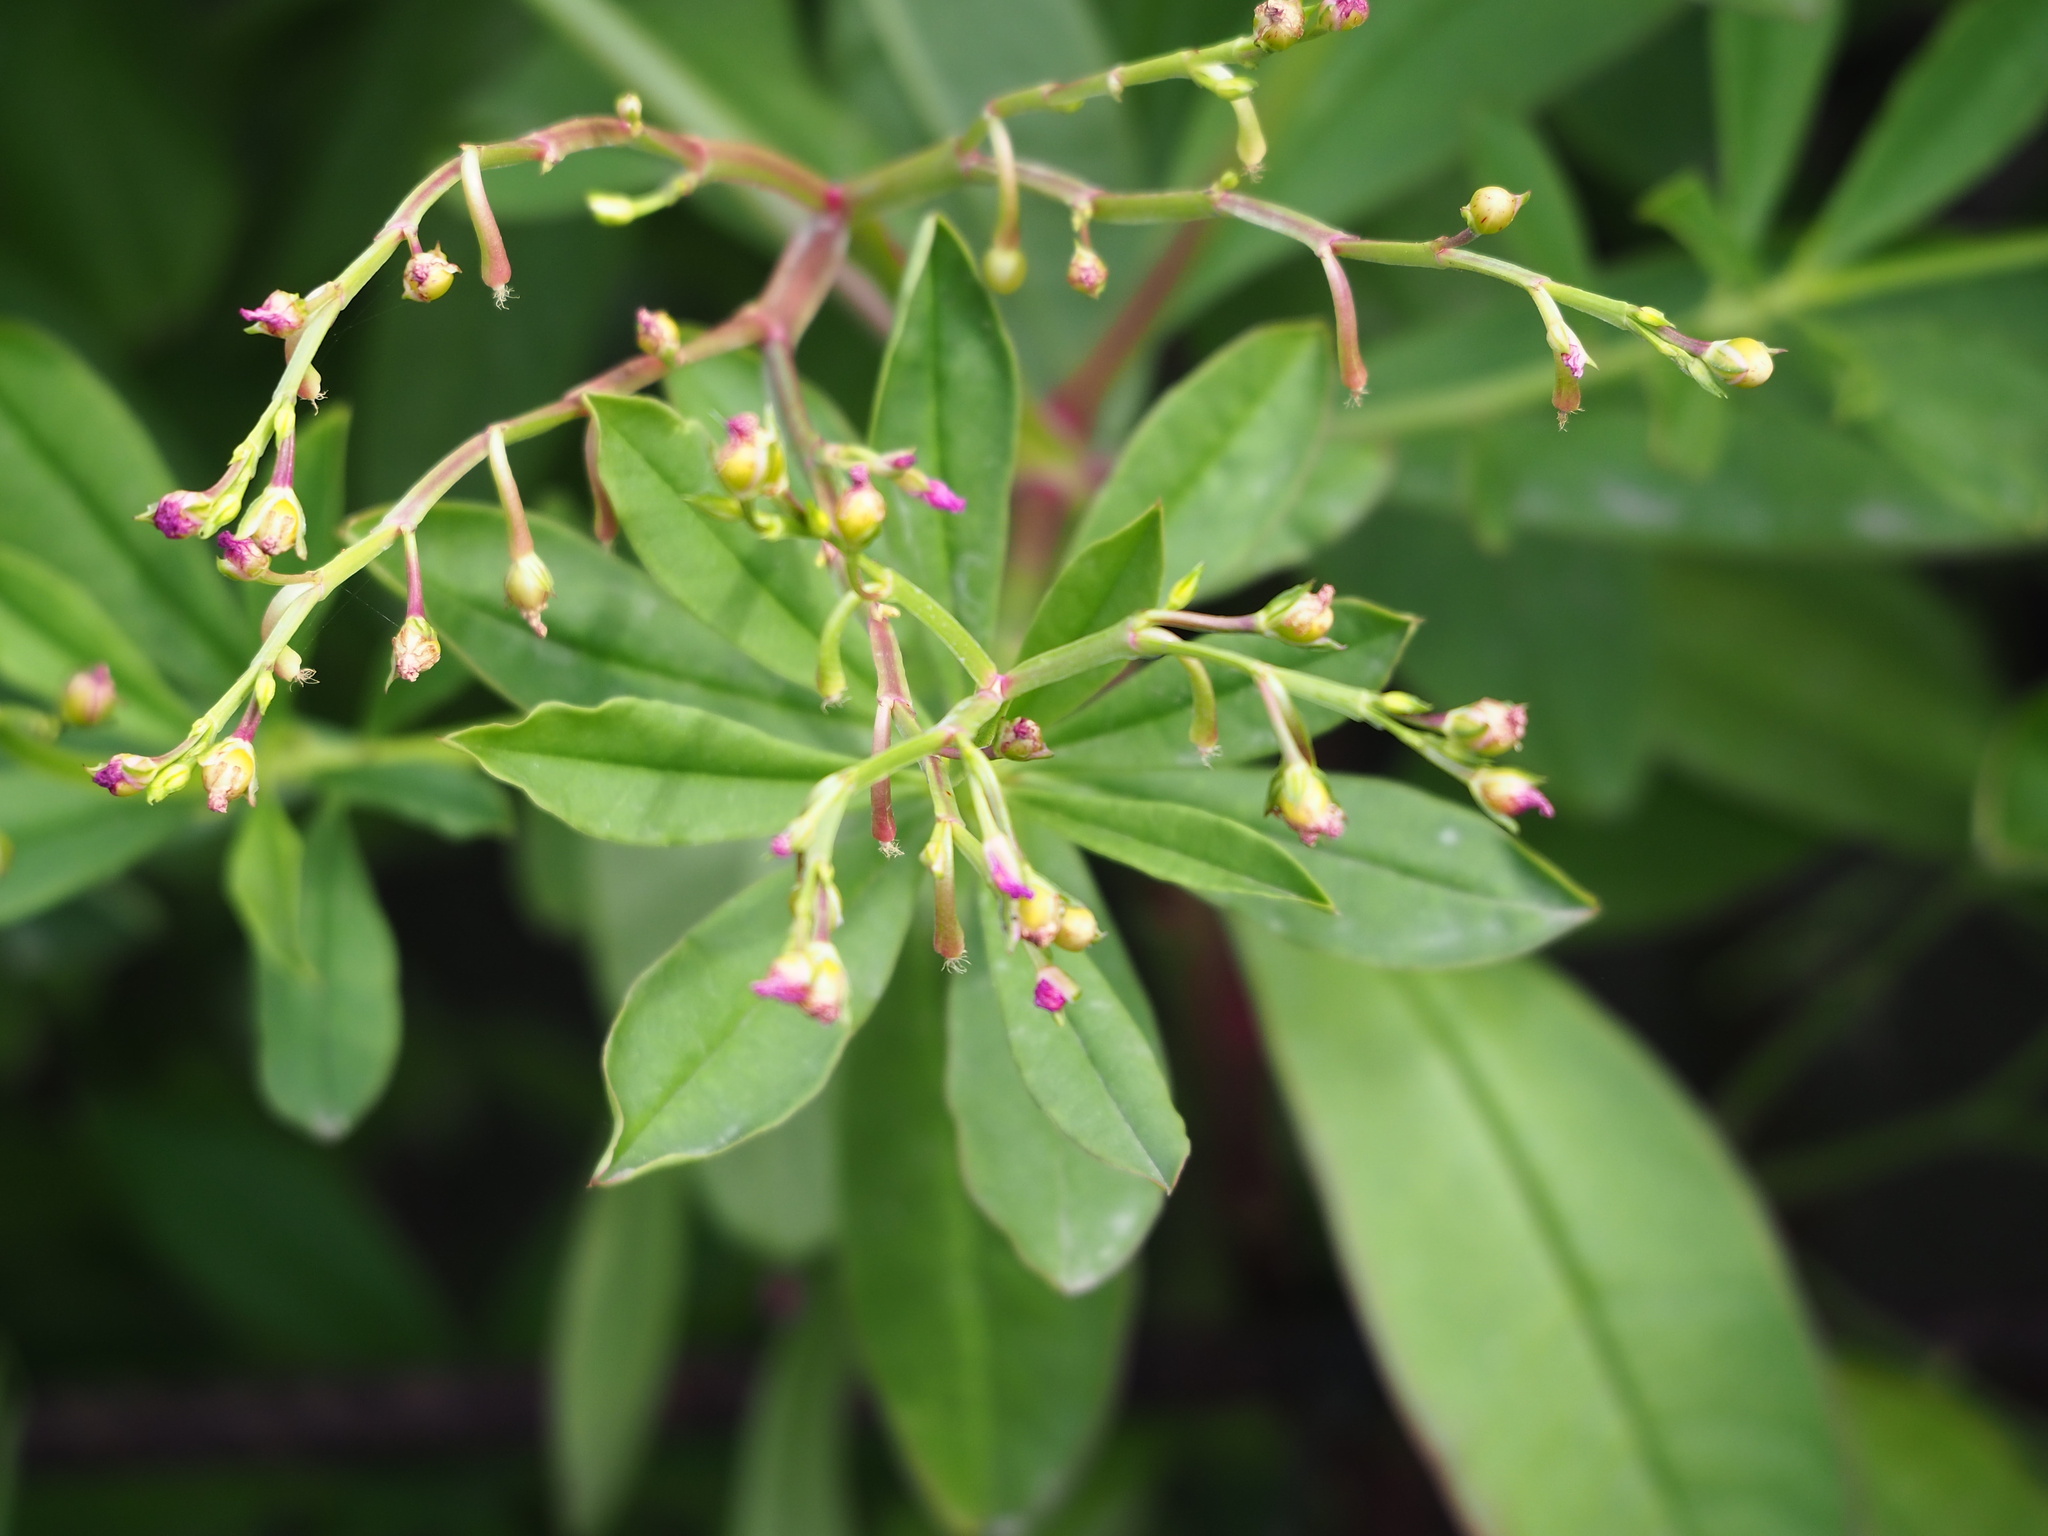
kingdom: Plantae
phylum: Tracheophyta
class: Magnoliopsida
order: Caryophyllales
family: Talinaceae
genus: Talinum
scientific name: Talinum fruticosum
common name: Verdolaga-francesa
